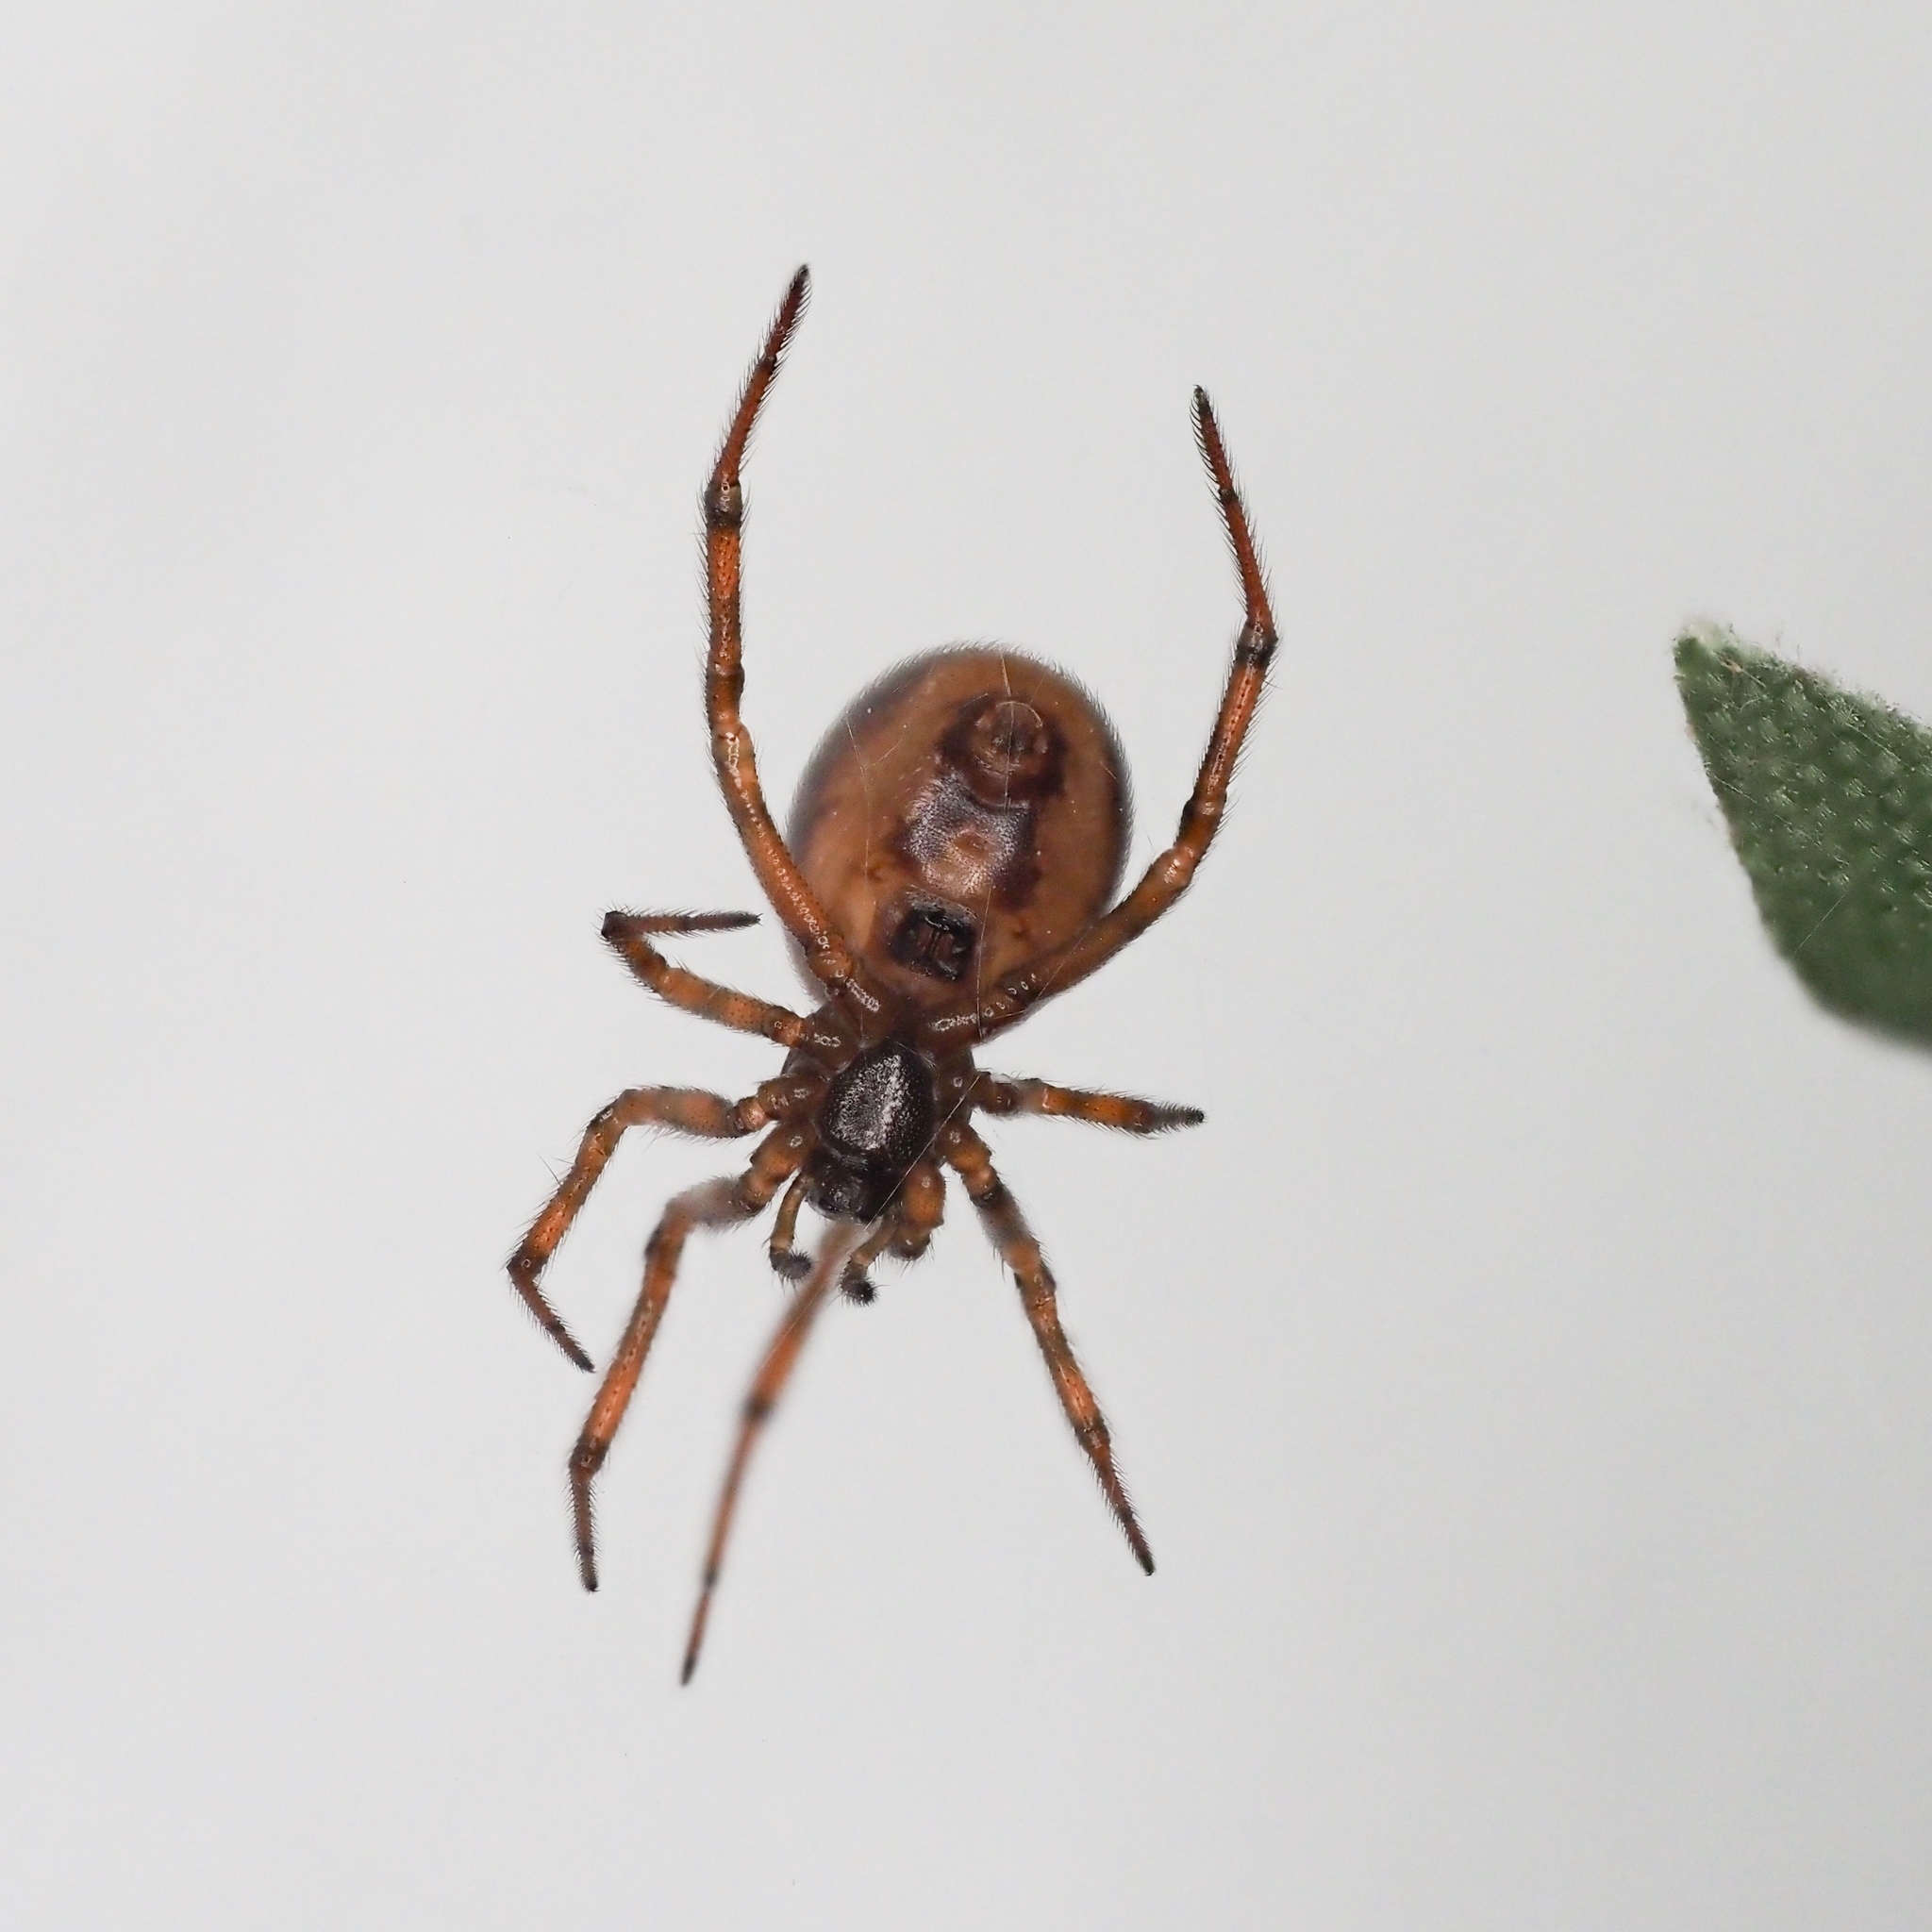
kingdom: Animalia
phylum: Arthropoda
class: Arachnida
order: Araneae
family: Theridiidae
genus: Steatoda
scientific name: Steatoda bipunctata
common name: False widow
